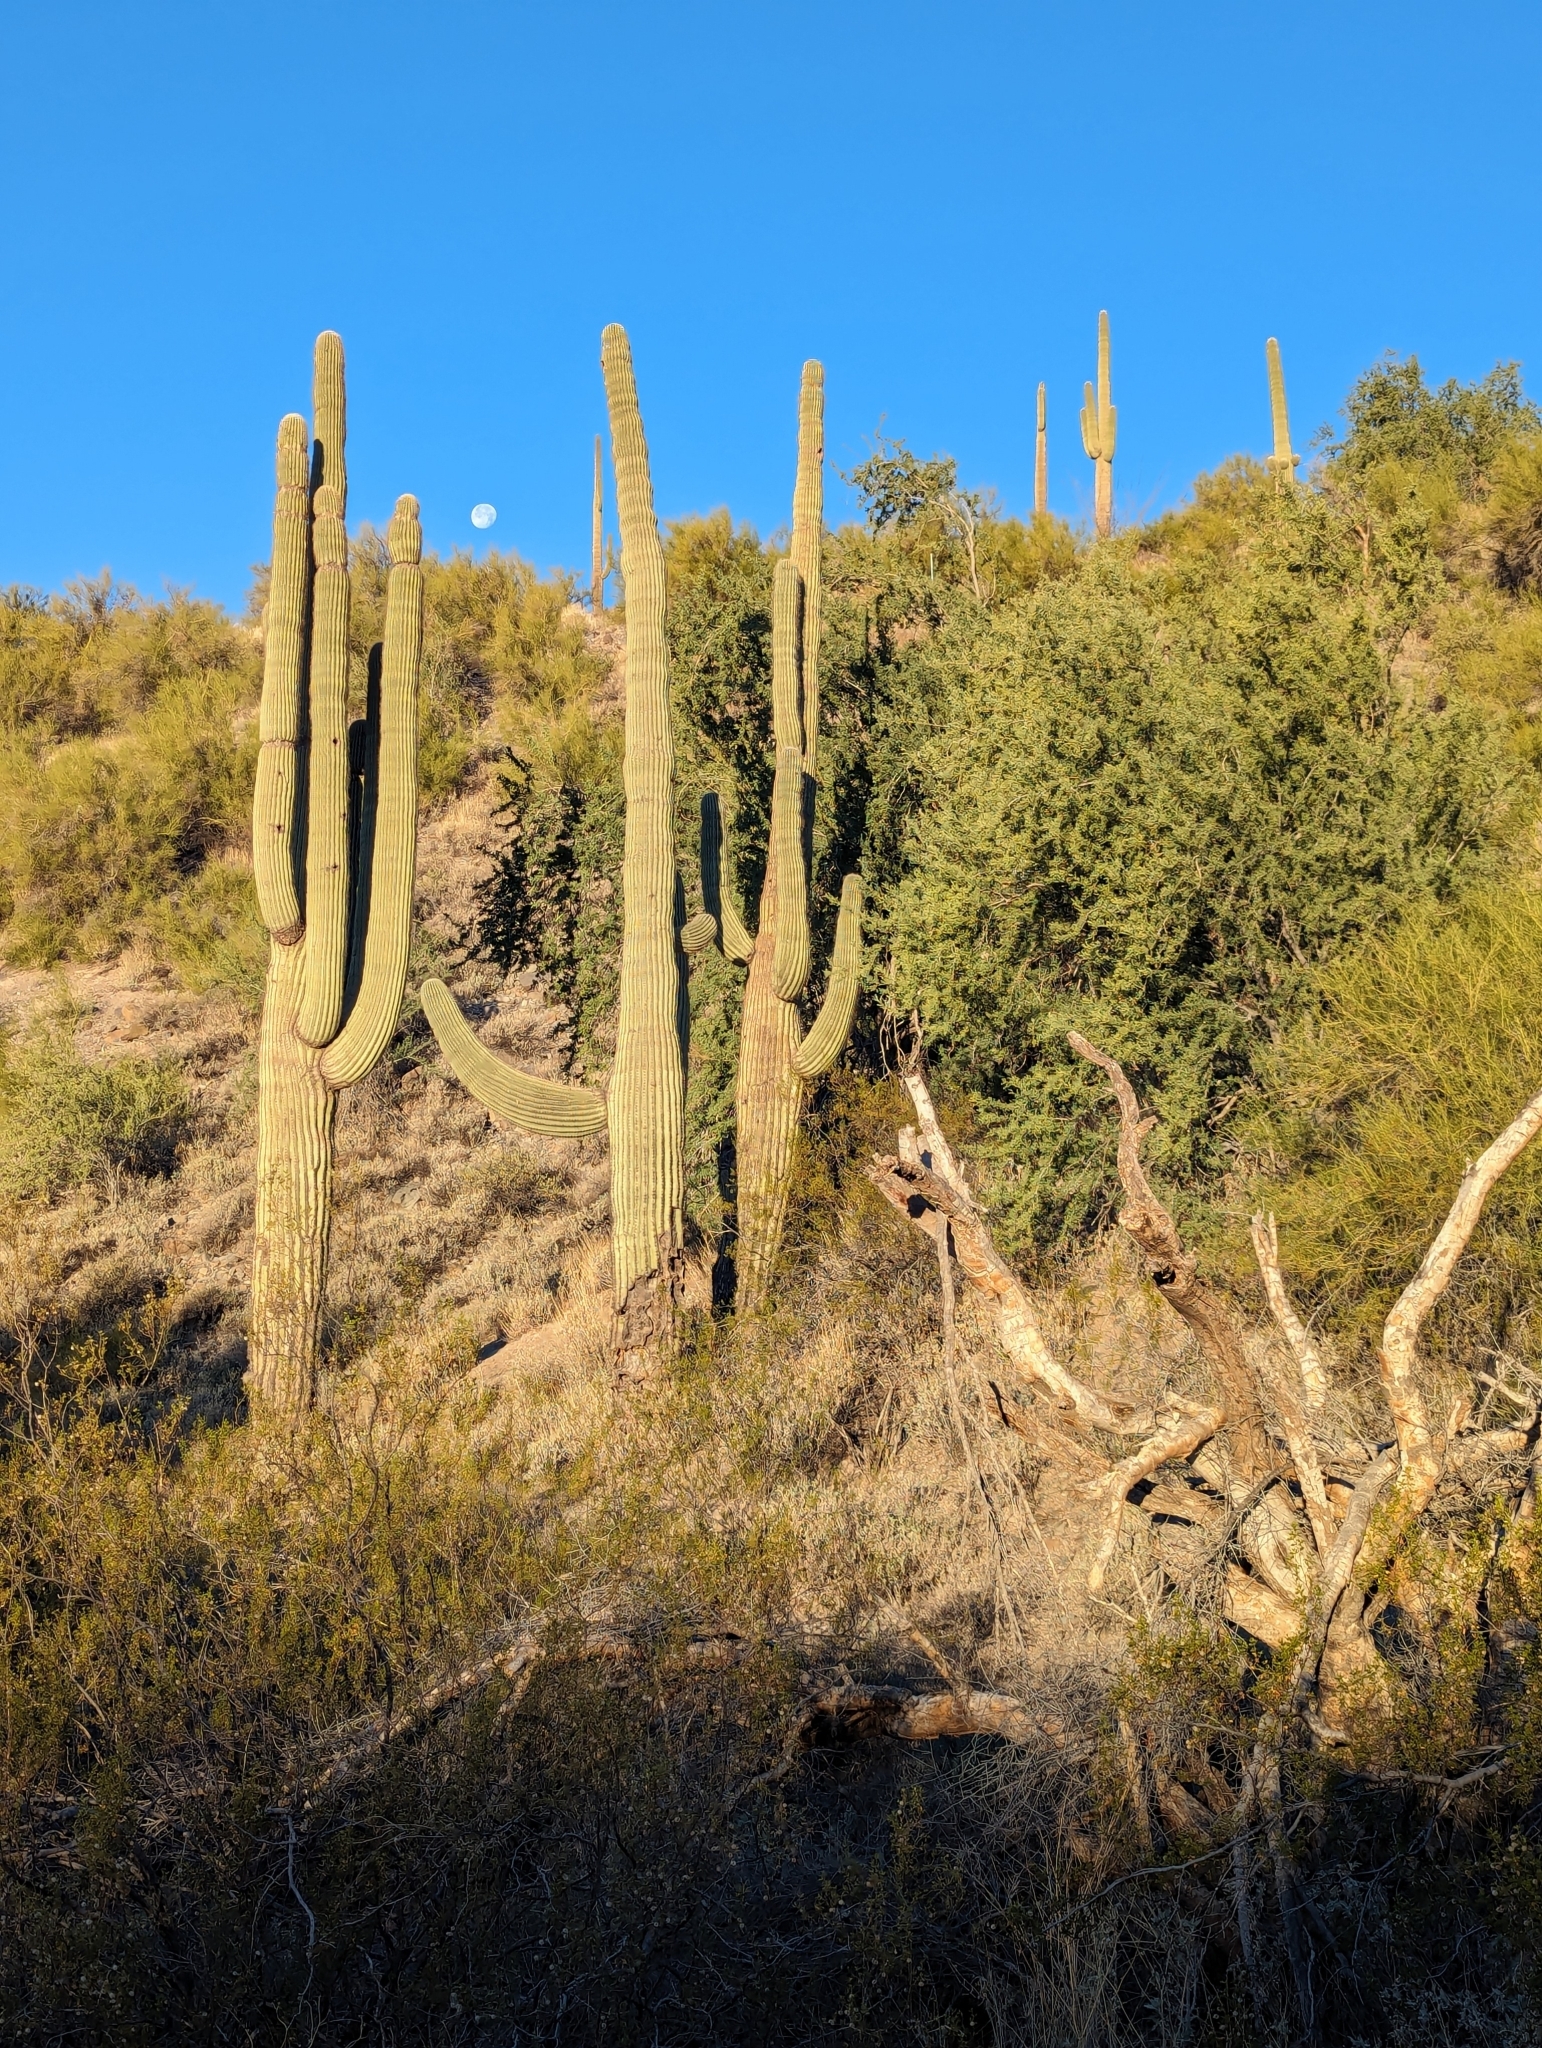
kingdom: Plantae
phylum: Tracheophyta
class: Magnoliopsida
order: Caryophyllales
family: Cactaceae
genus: Carnegiea
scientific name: Carnegiea gigantea
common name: Saguaro
